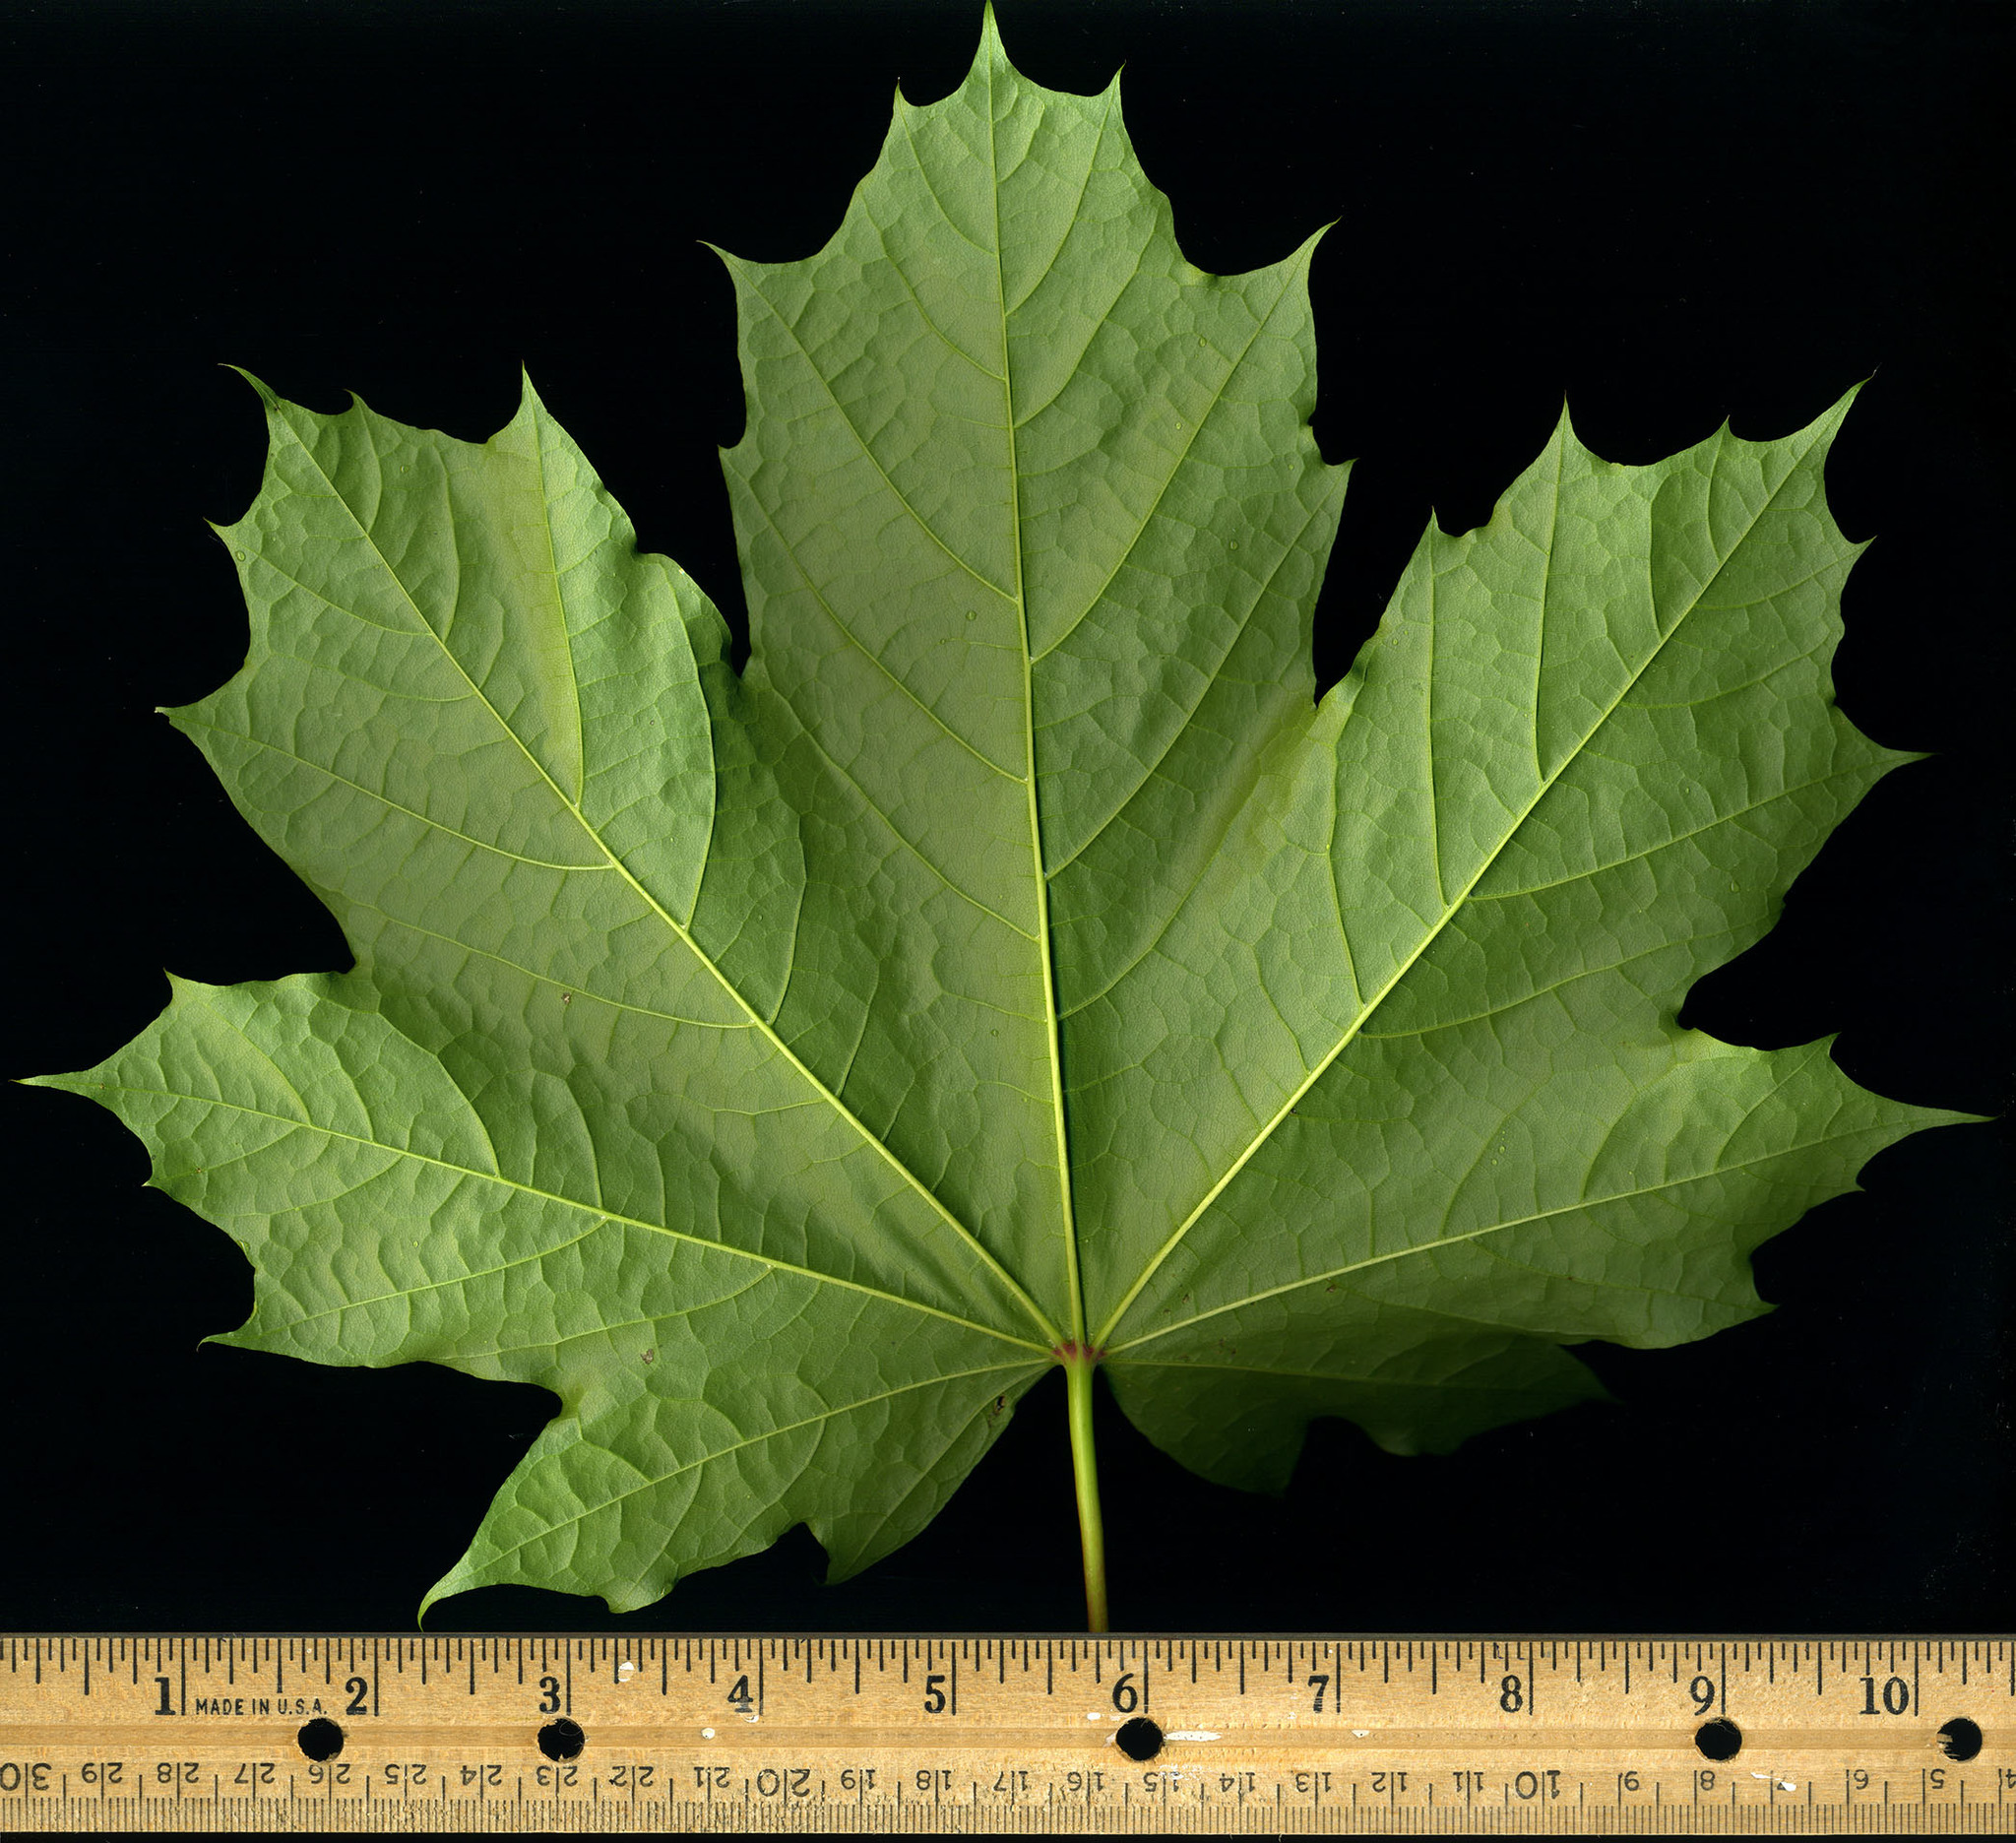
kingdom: Plantae
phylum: Tracheophyta
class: Magnoliopsida
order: Sapindales
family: Sapindaceae
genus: Acer
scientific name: Acer platanoides
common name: Norway maple
